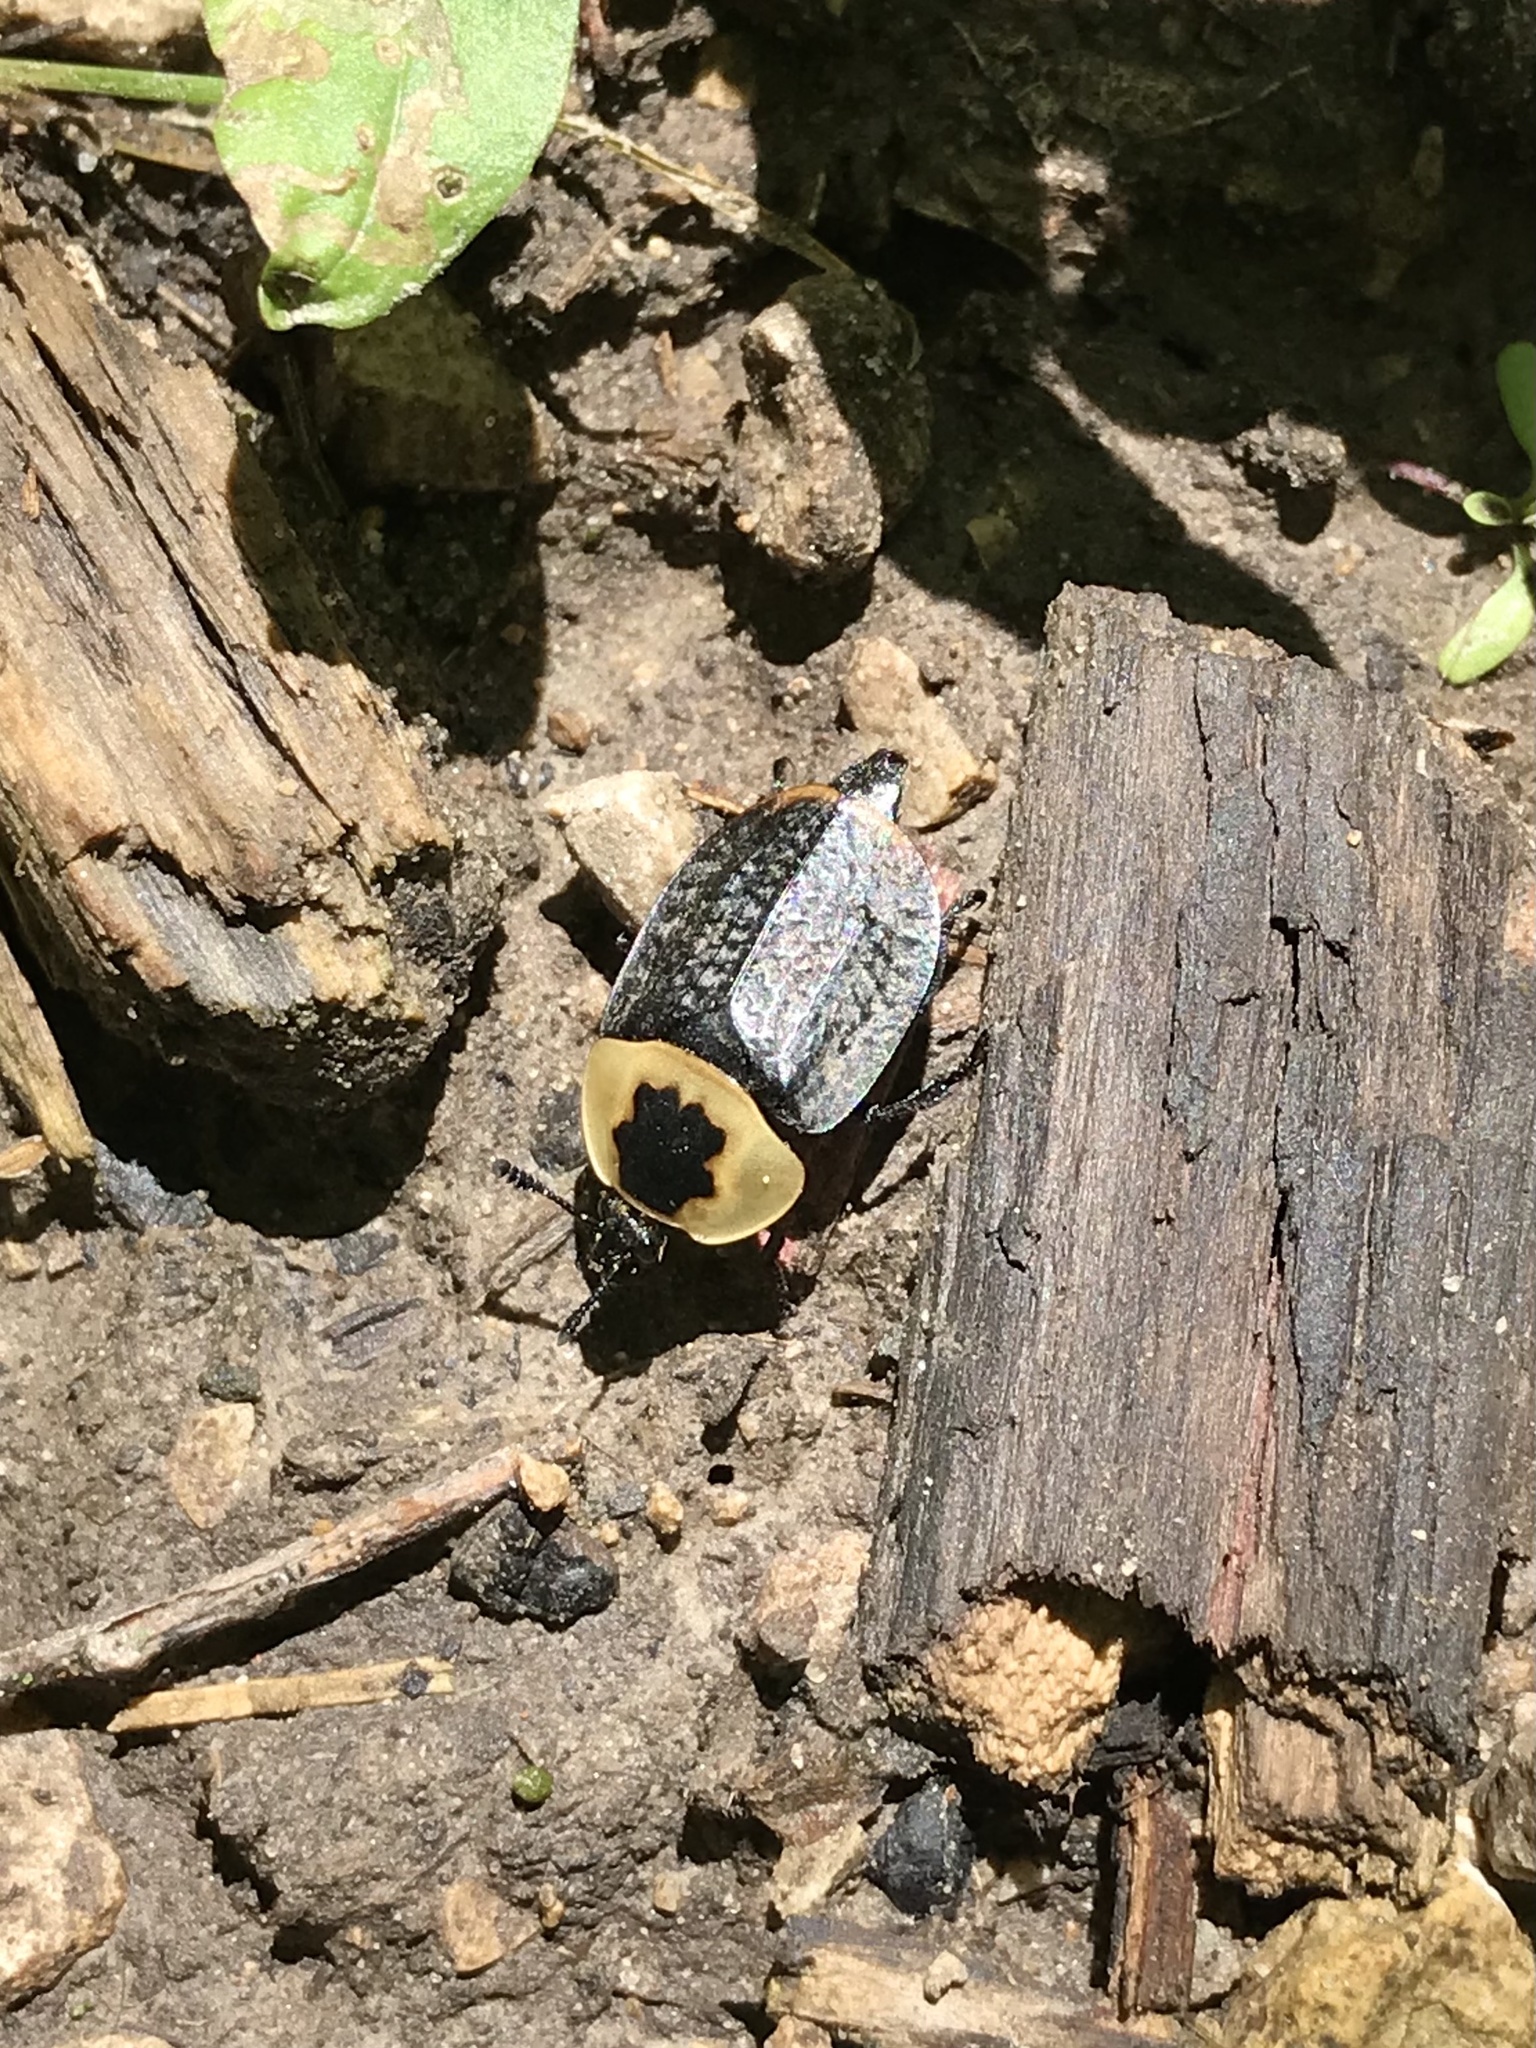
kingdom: Animalia
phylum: Arthropoda
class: Insecta
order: Coleoptera
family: Staphylinidae
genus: Necrophila
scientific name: Necrophila americana
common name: American carrion beetle
